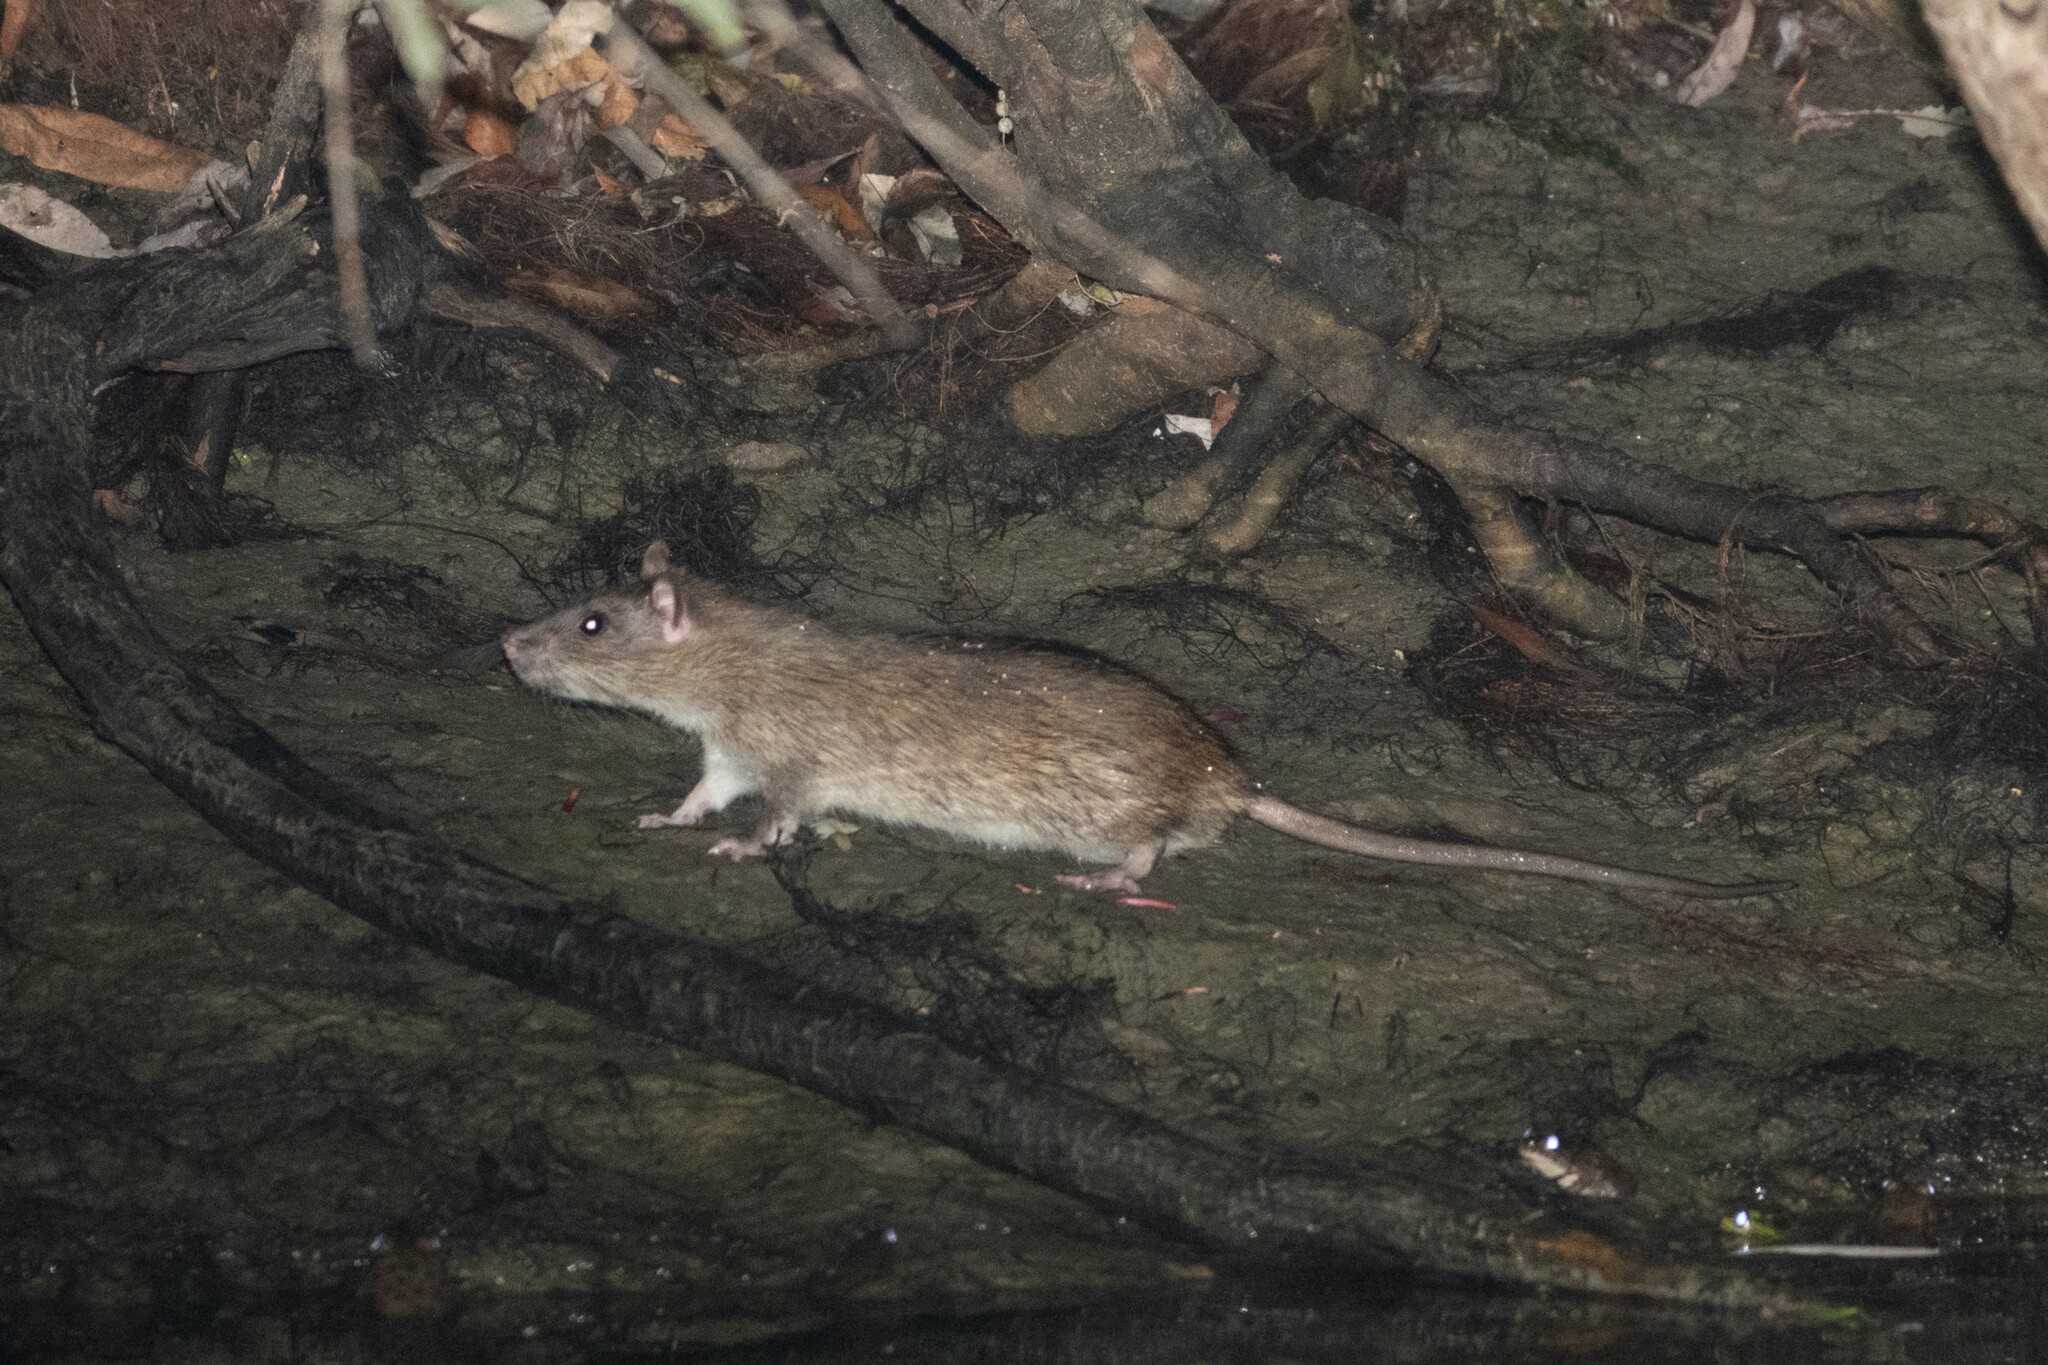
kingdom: Animalia
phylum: Chordata
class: Mammalia
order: Rodentia
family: Muridae
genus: Rattus
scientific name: Rattus norvegicus
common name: Brown rat
